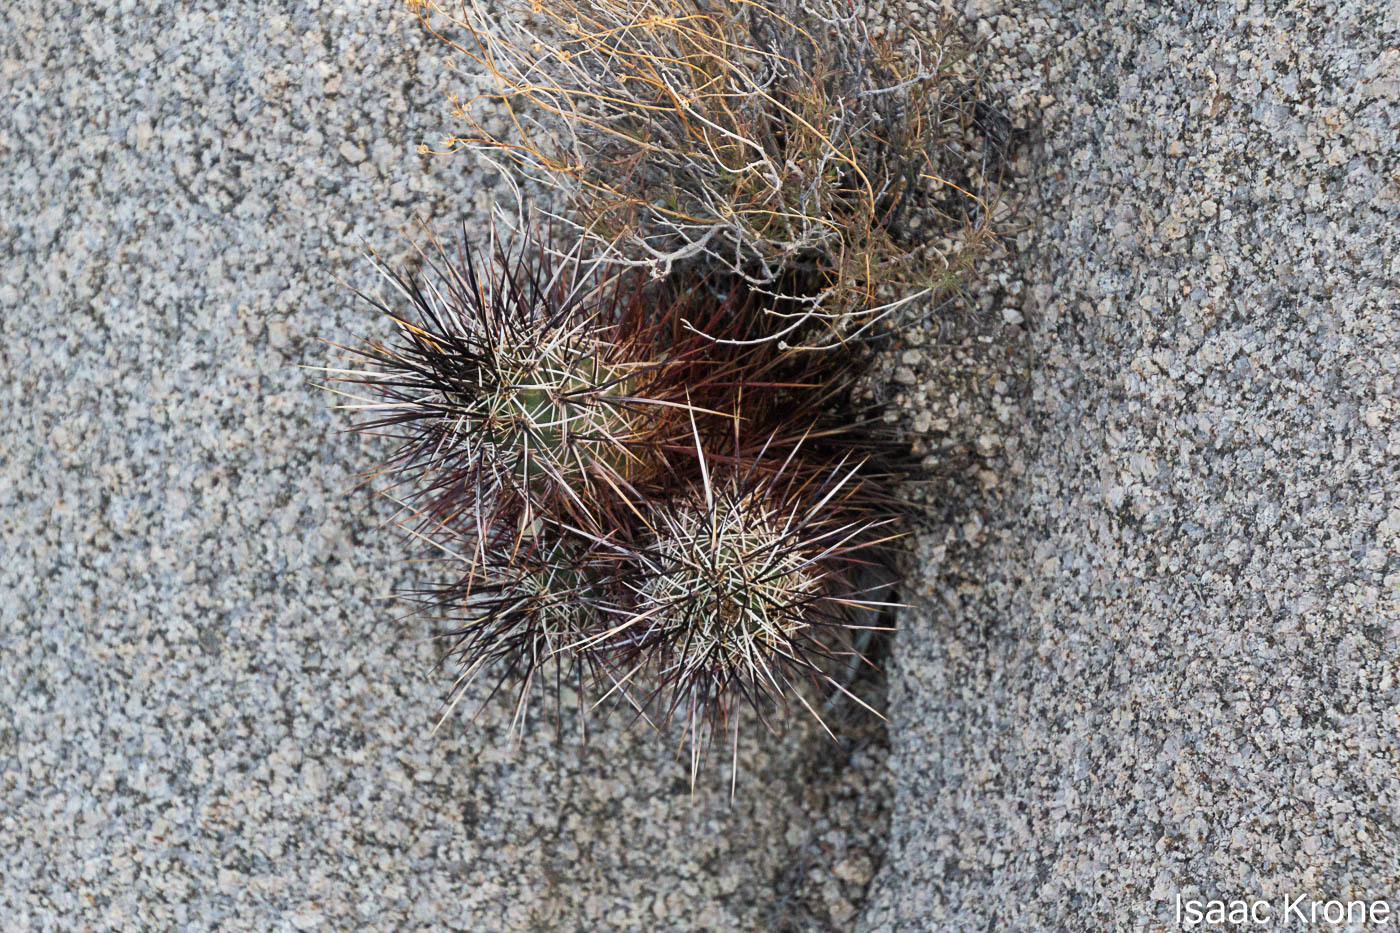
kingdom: Plantae
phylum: Tracheophyta
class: Magnoliopsida
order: Caryophyllales
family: Cactaceae
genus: Echinocereus
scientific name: Echinocereus engelmannii
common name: Engelmann's hedgehog cactus
